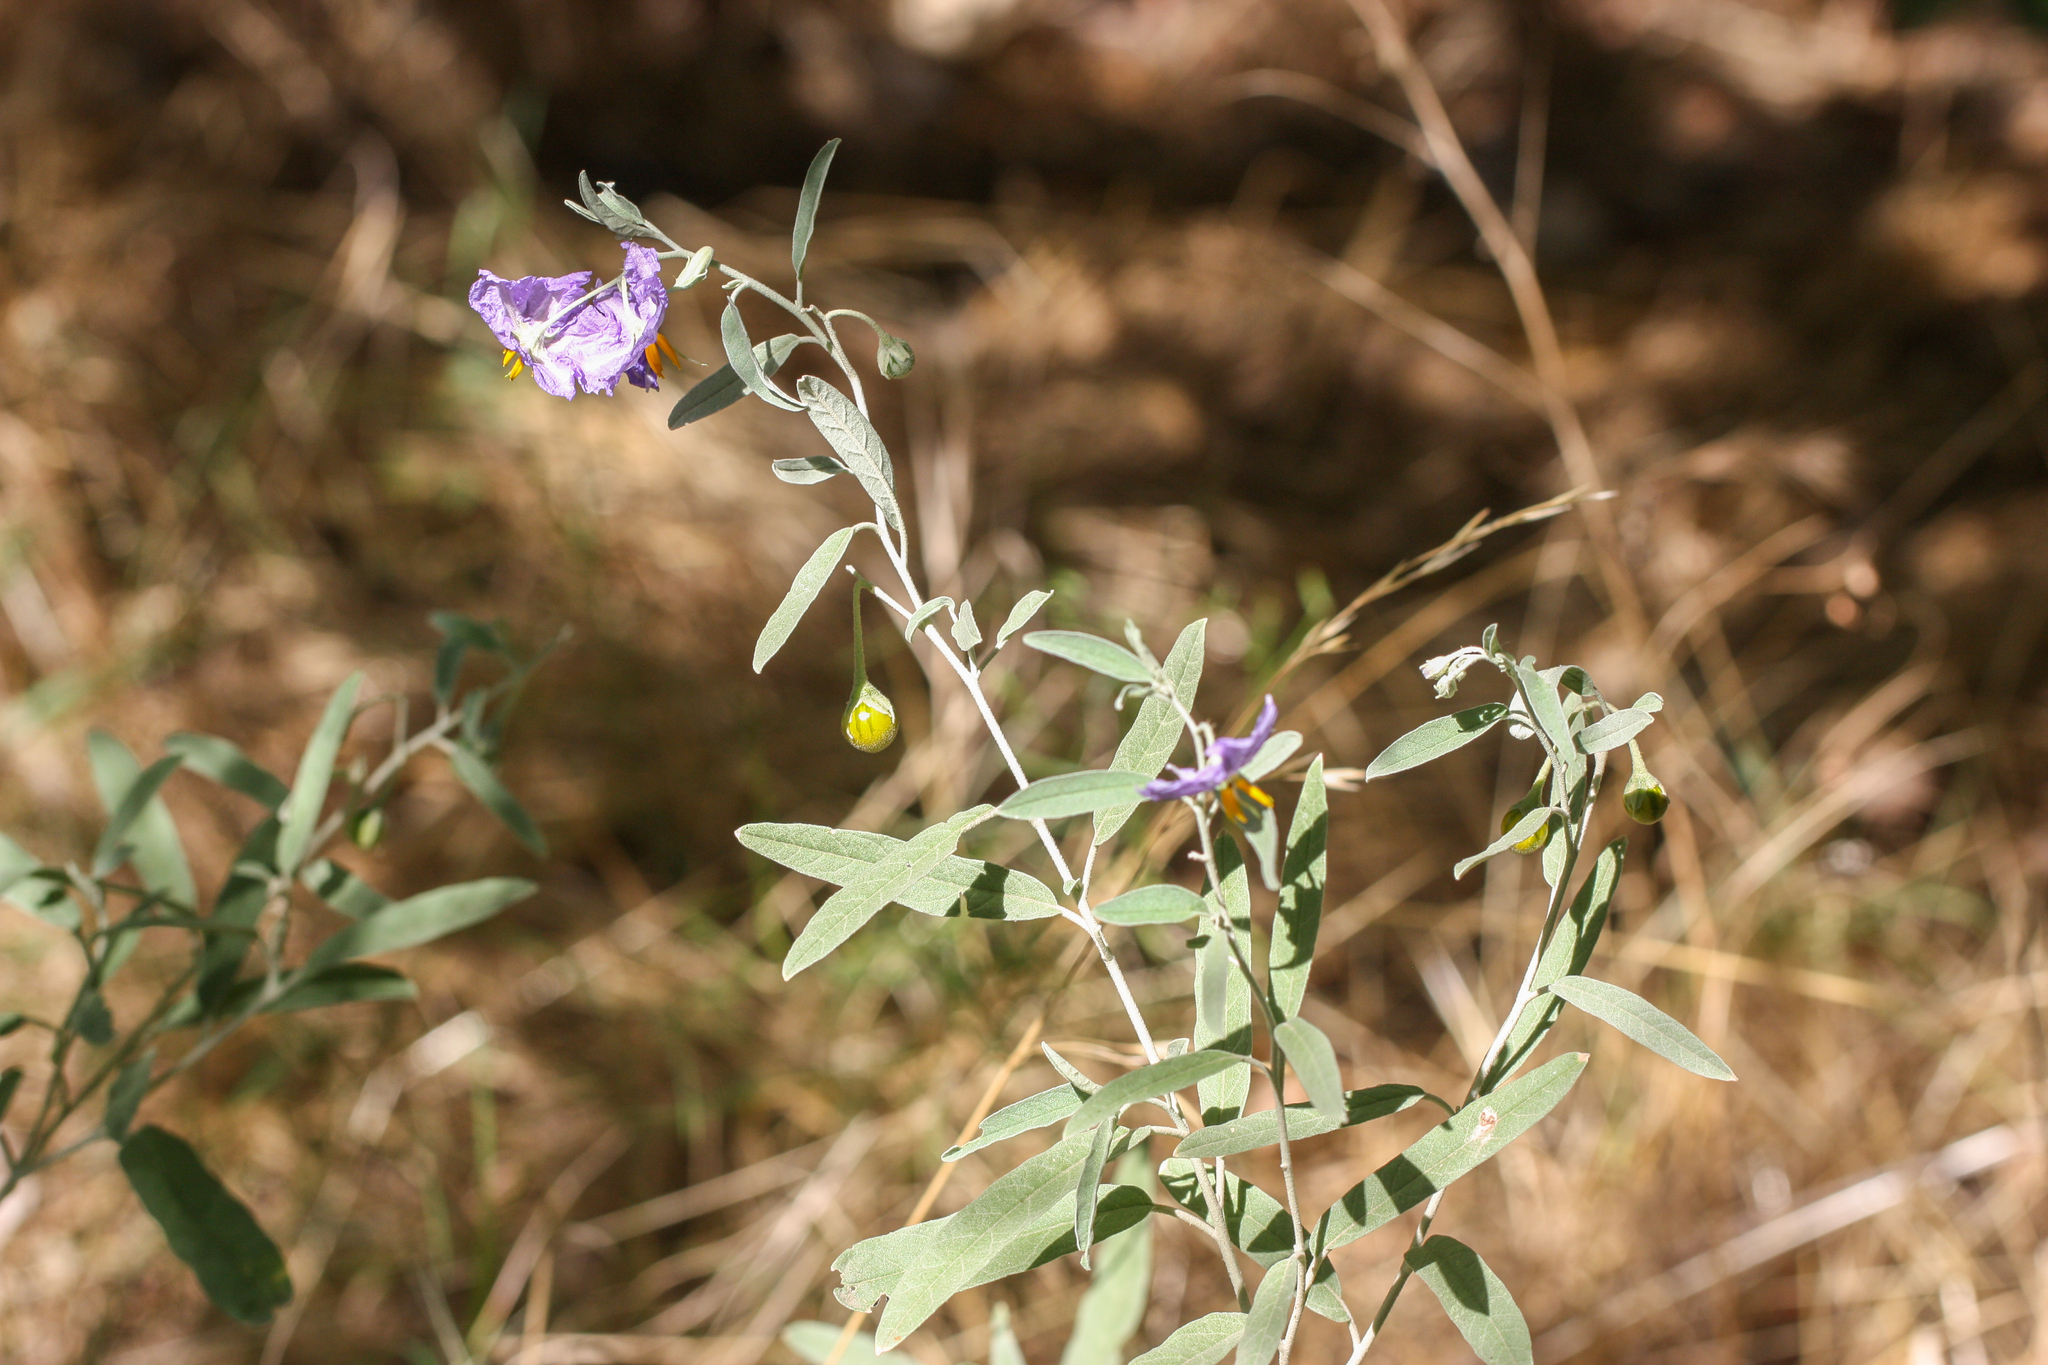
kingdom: Plantae
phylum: Tracheophyta
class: Magnoliopsida
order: Solanales
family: Solanaceae
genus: Solanum
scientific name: Solanum elaeagnifolium
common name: Silverleaf nightshade
